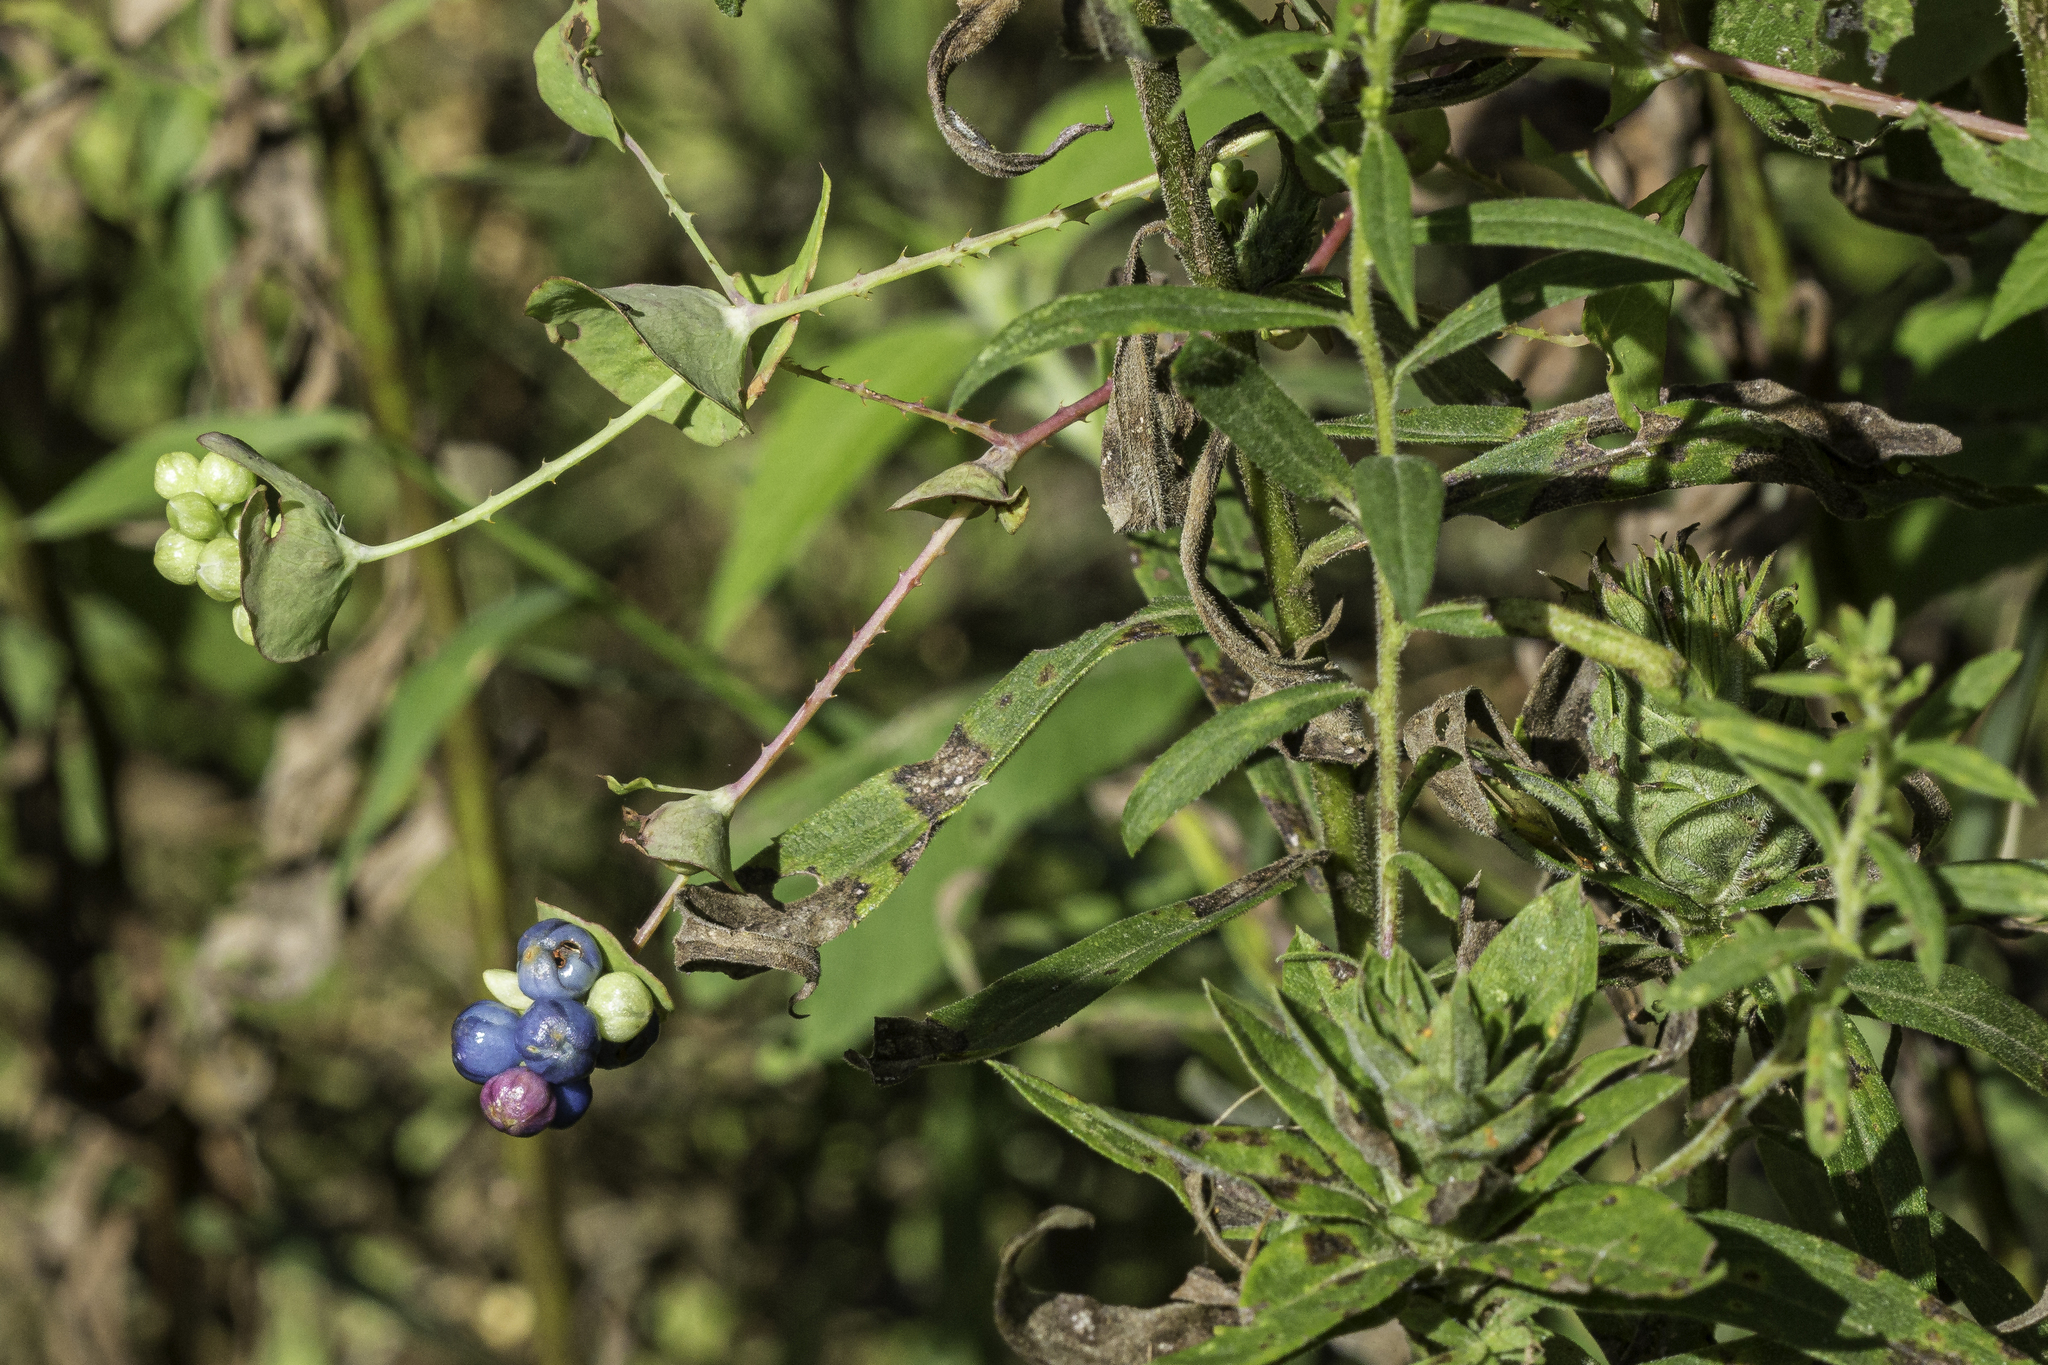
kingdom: Plantae
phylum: Tracheophyta
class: Magnoliopsida
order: Caryophyllales
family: Polygonaceae
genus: Persicaria
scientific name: Persicaria perfoliata
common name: Asiatic tearthumb
